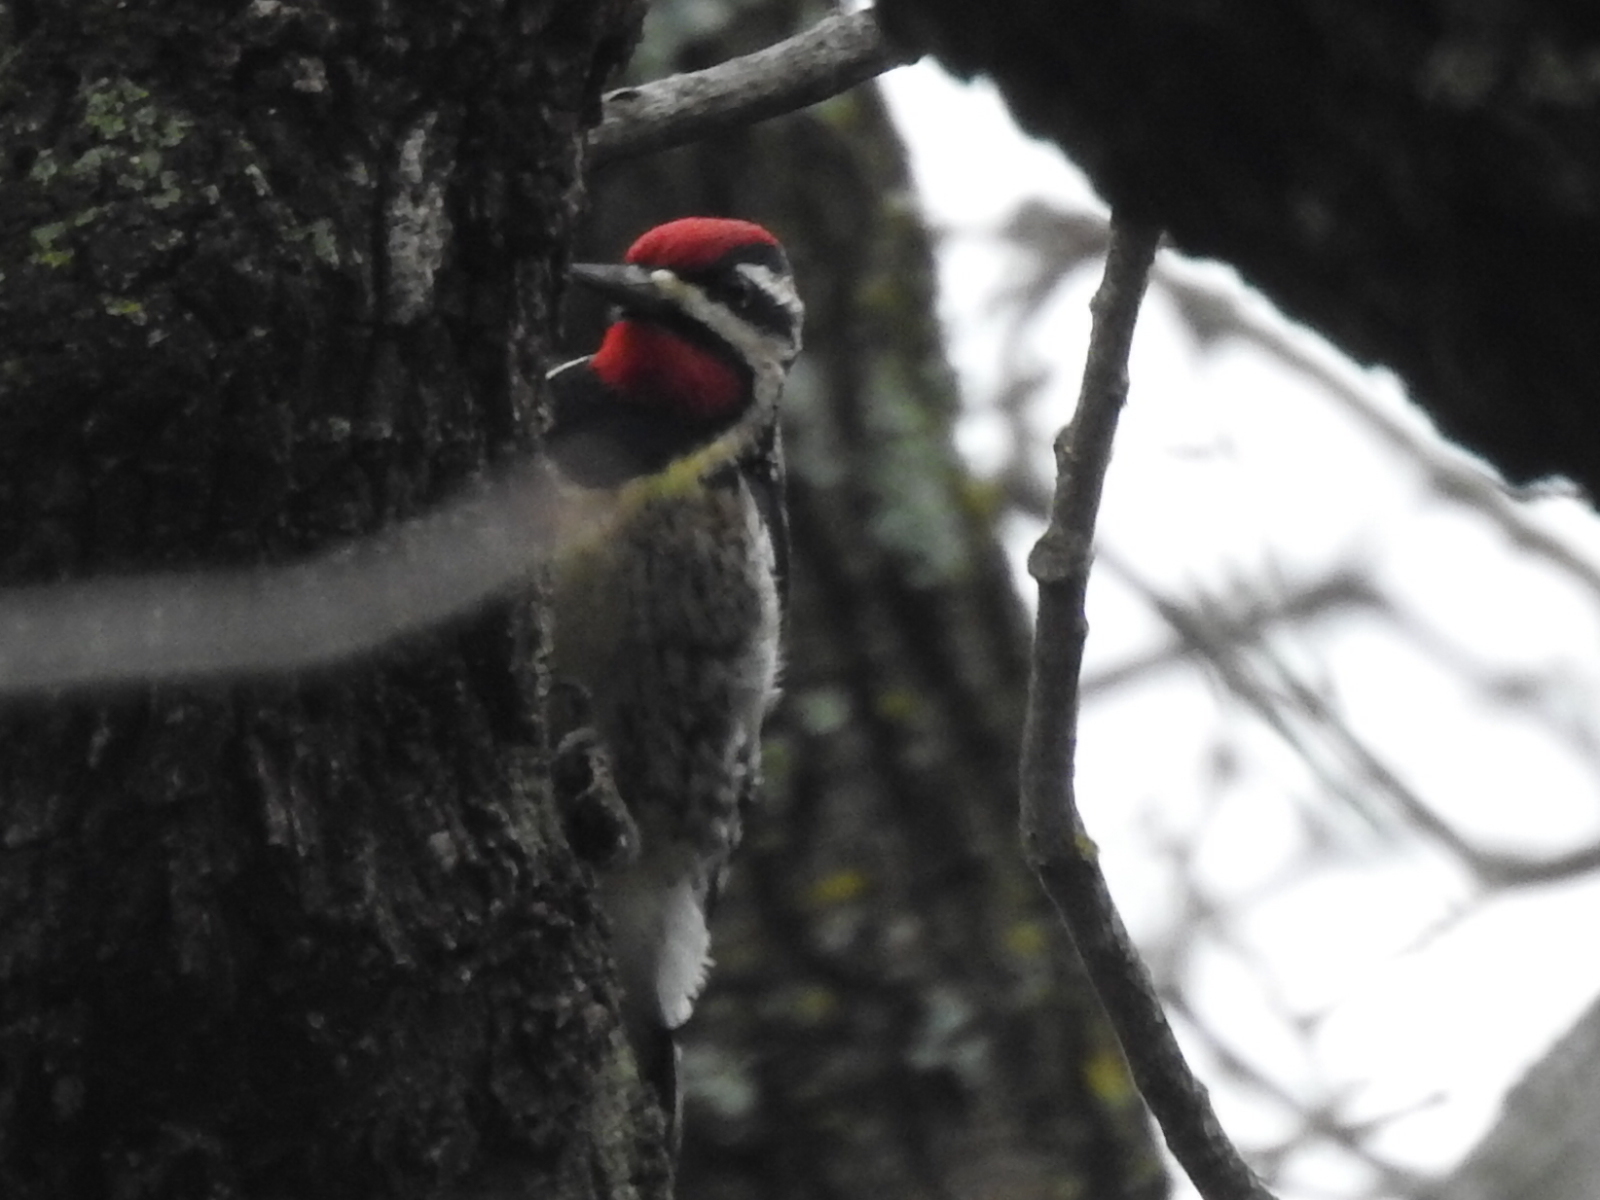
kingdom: Animalia
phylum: Chordata
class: Aves
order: Piciformes
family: Picidae
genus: Sphyrapicus
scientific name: Sphyrapicus varius
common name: Yellow-bellied sapsucker
